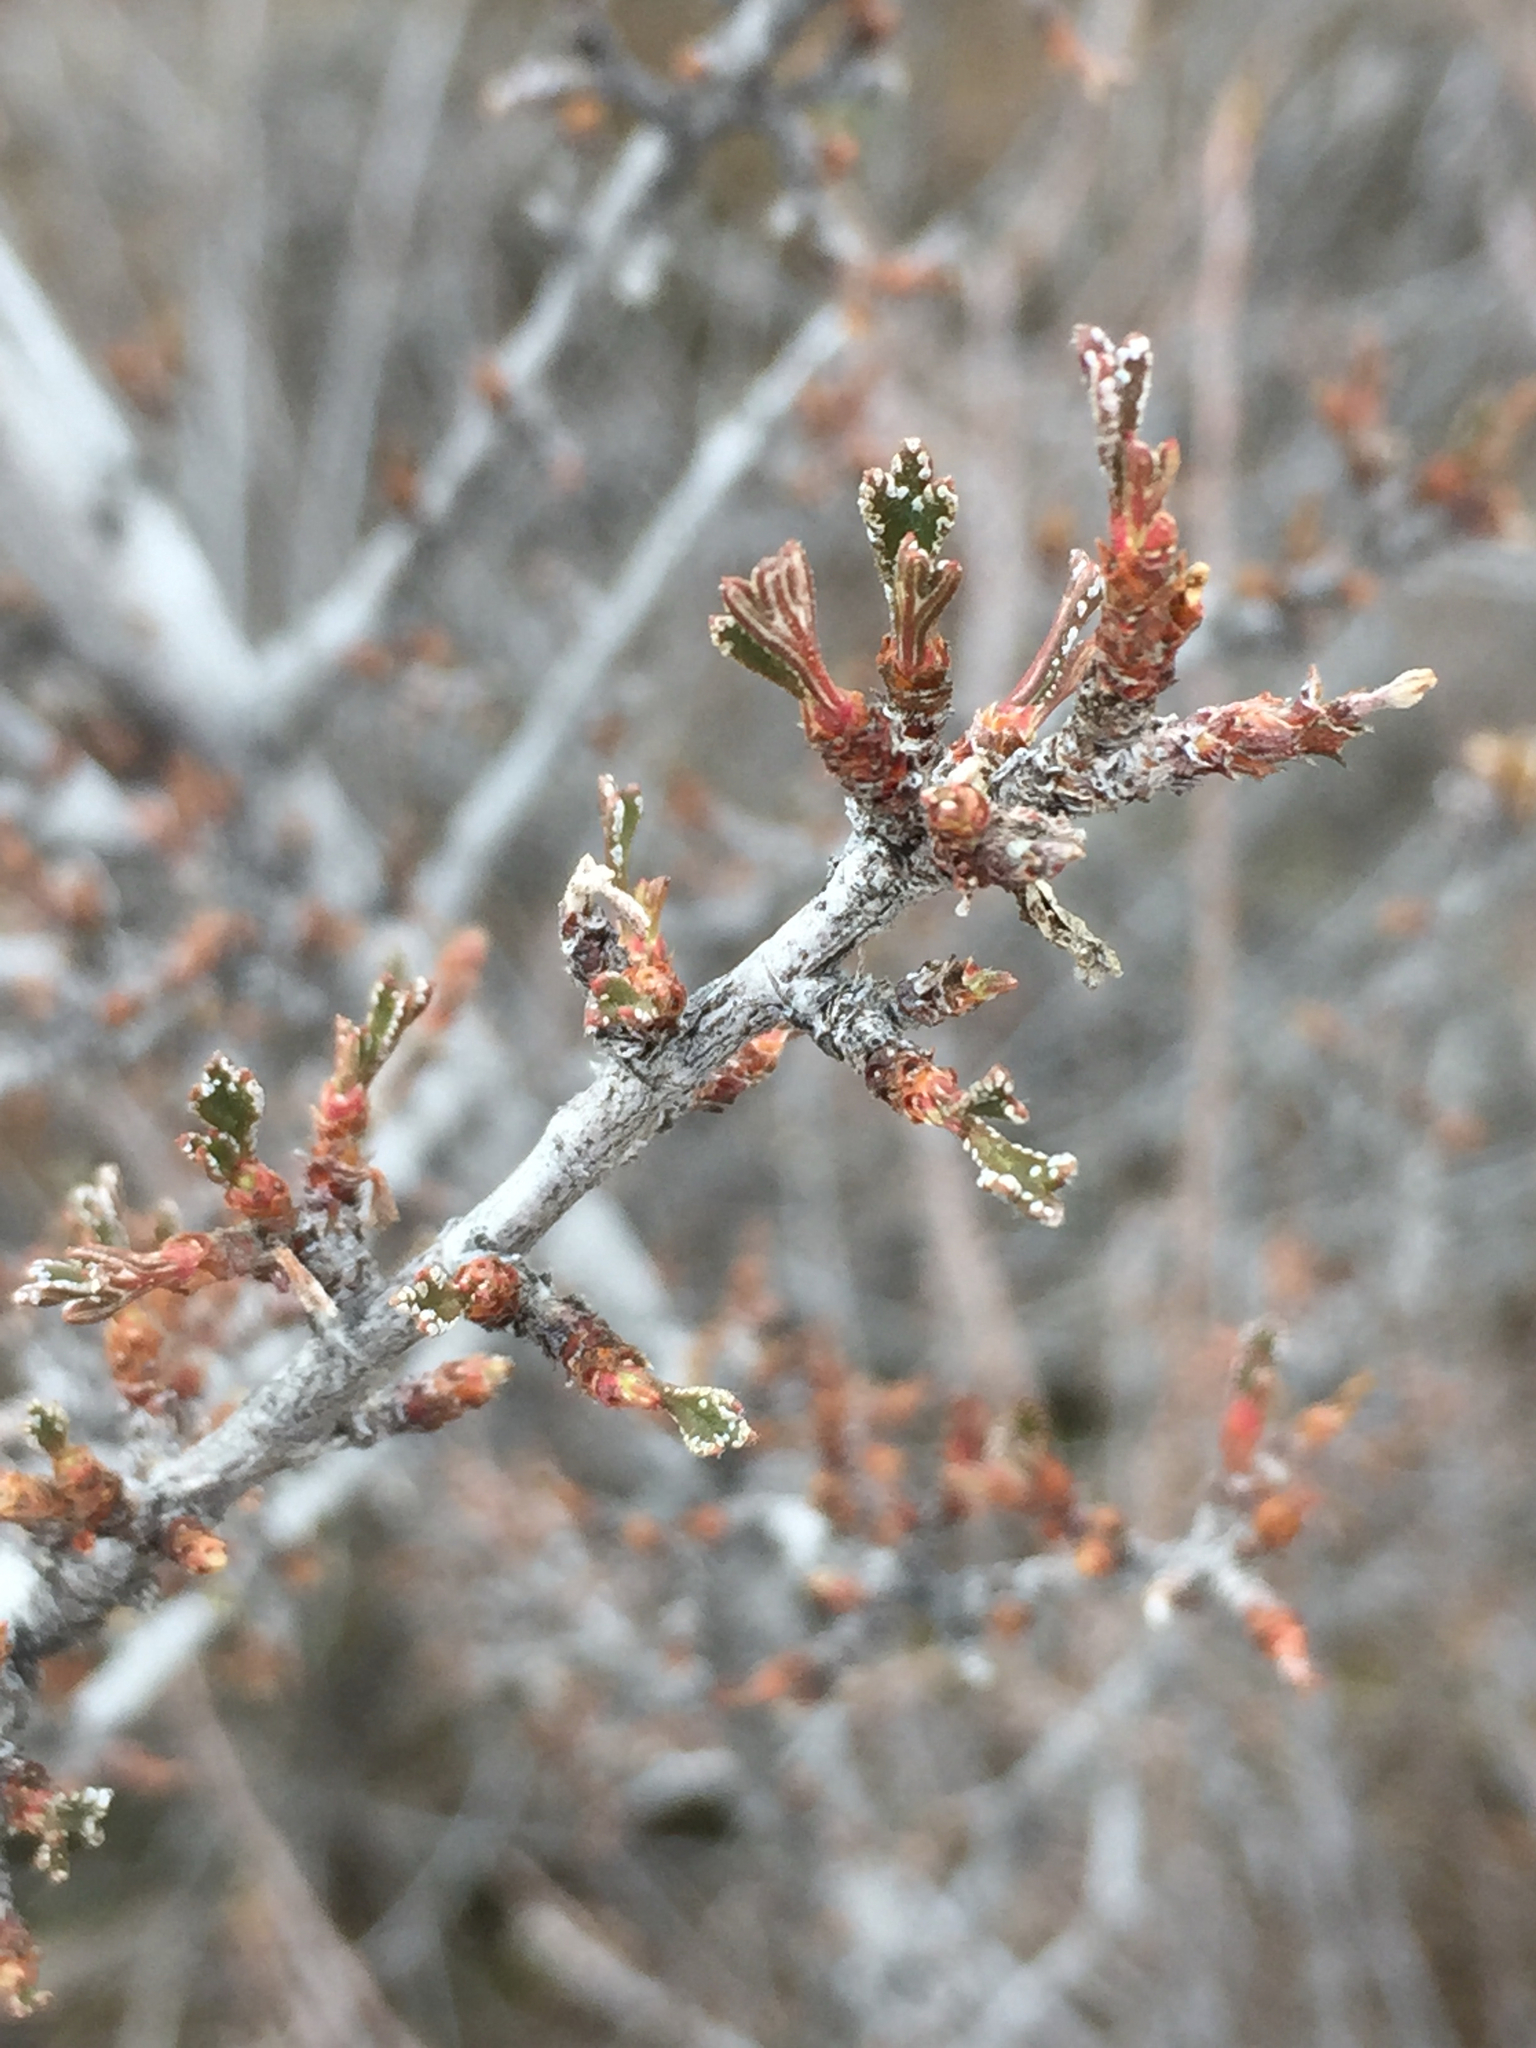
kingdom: Plantae
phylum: Tracheophyta
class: Magnoliopsida
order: Rosales
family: Rosaceae
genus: Purshia
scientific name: Purshia tridentata
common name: Antelope bitterbrush
